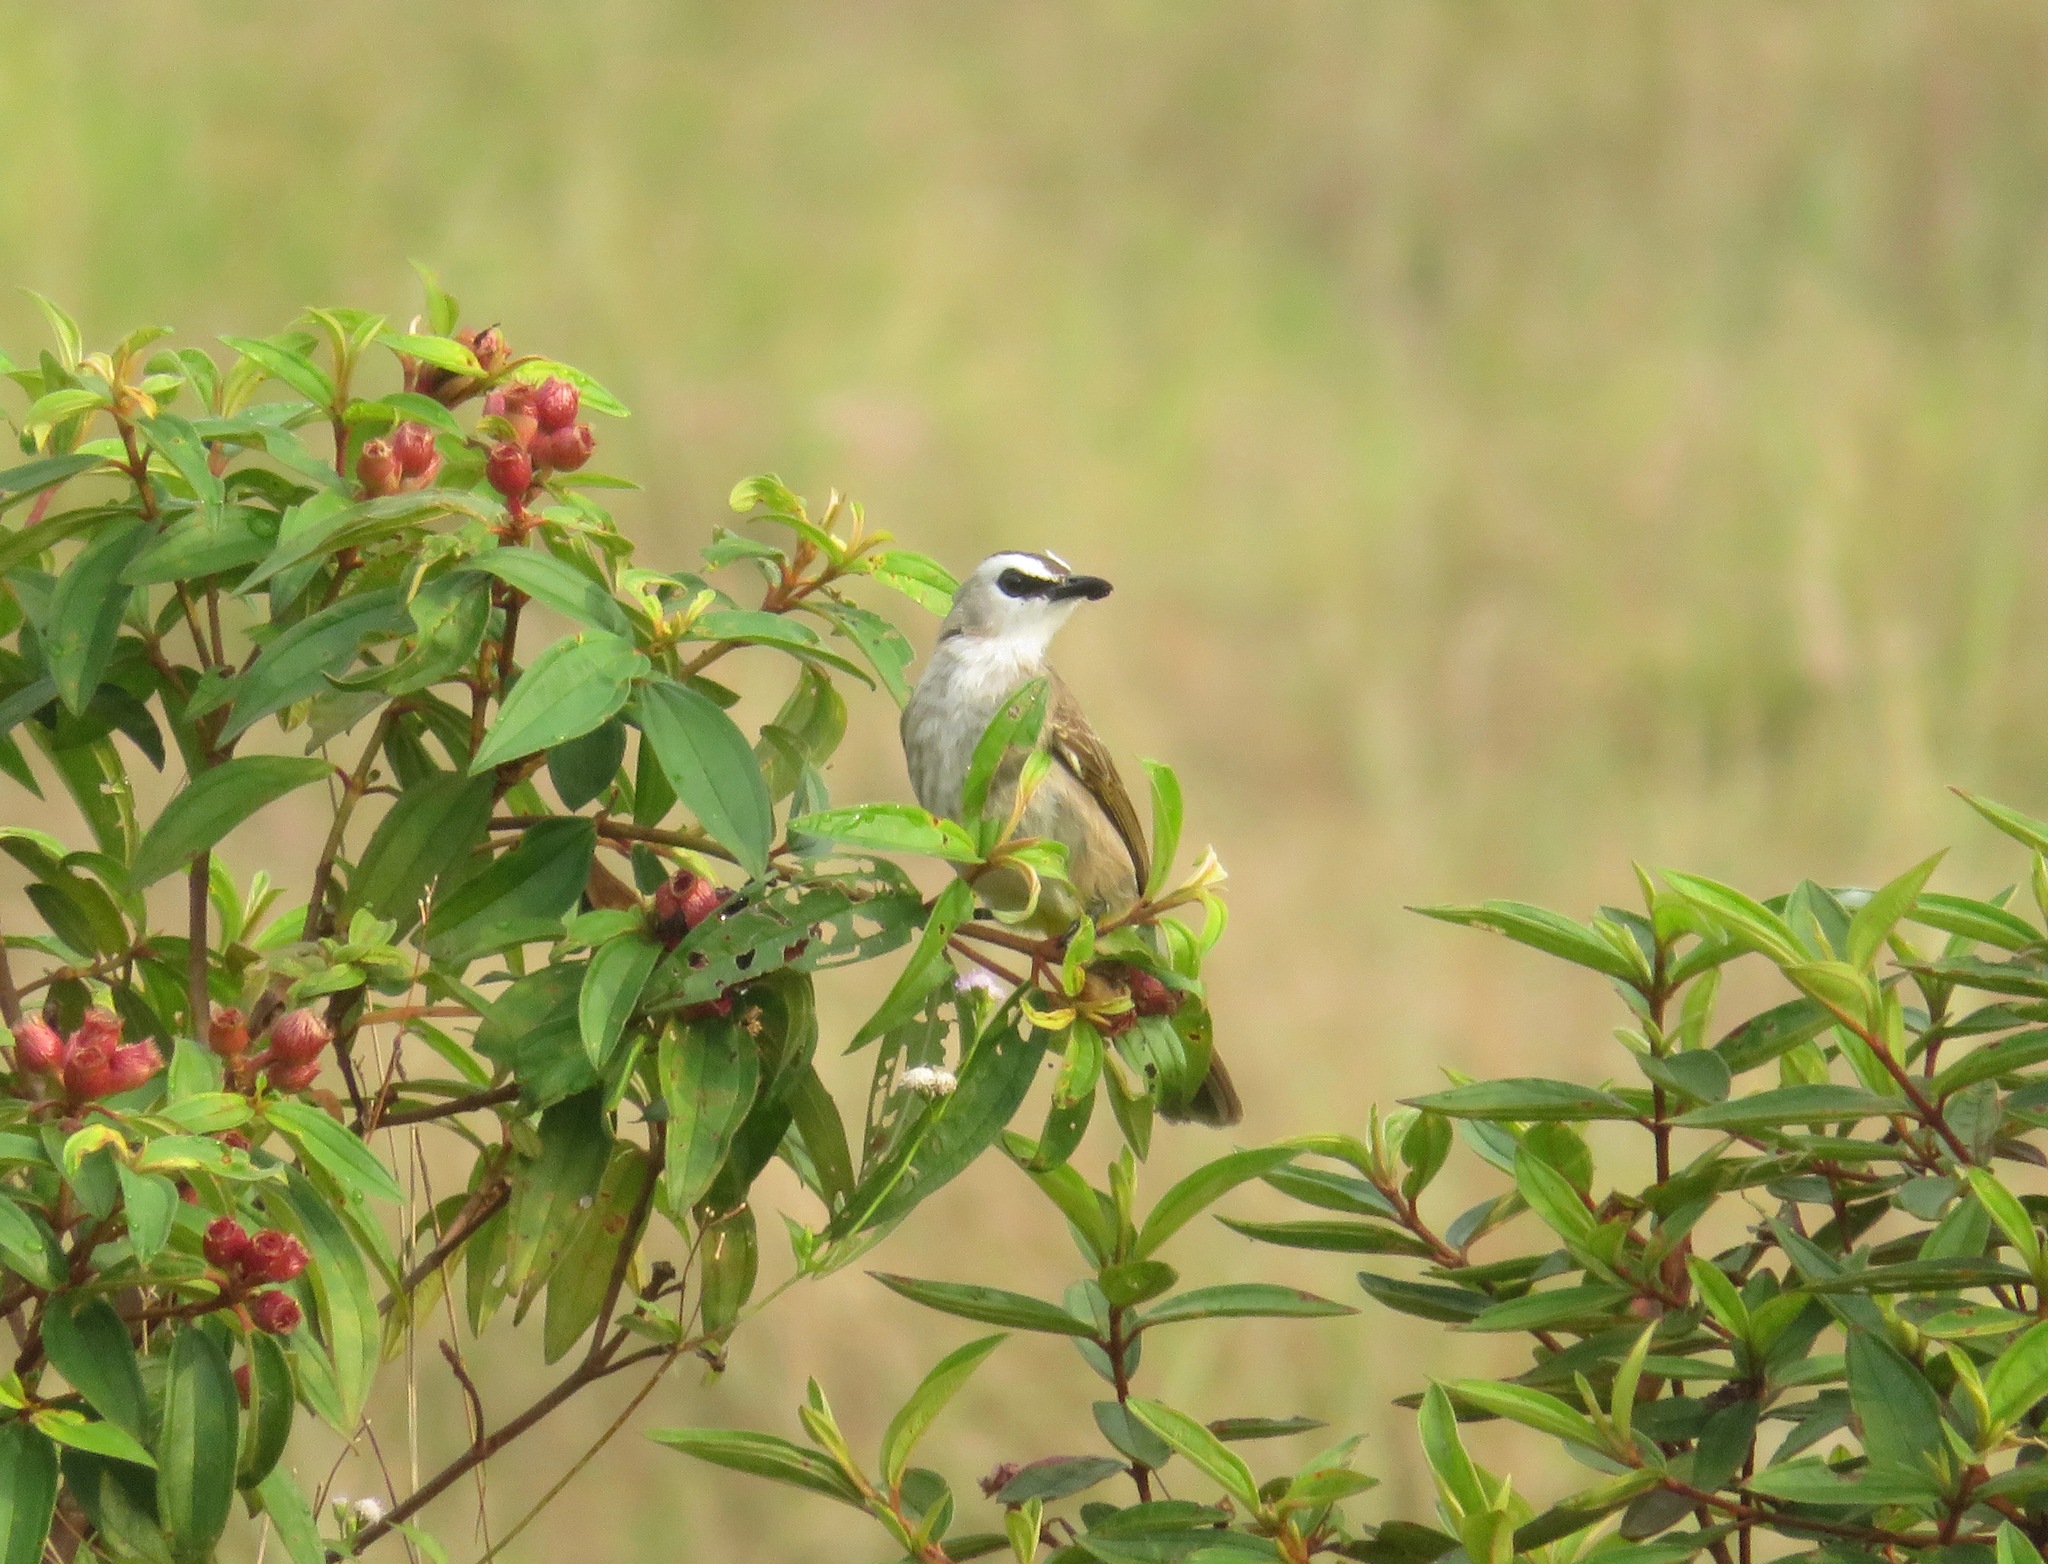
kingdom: Animalia
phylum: Chordata
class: Aves
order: Passeriformes
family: Pycnonotidae
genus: Pycnonotus
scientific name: Pycnonotus goiavier
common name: Yellow-vented bulbul
